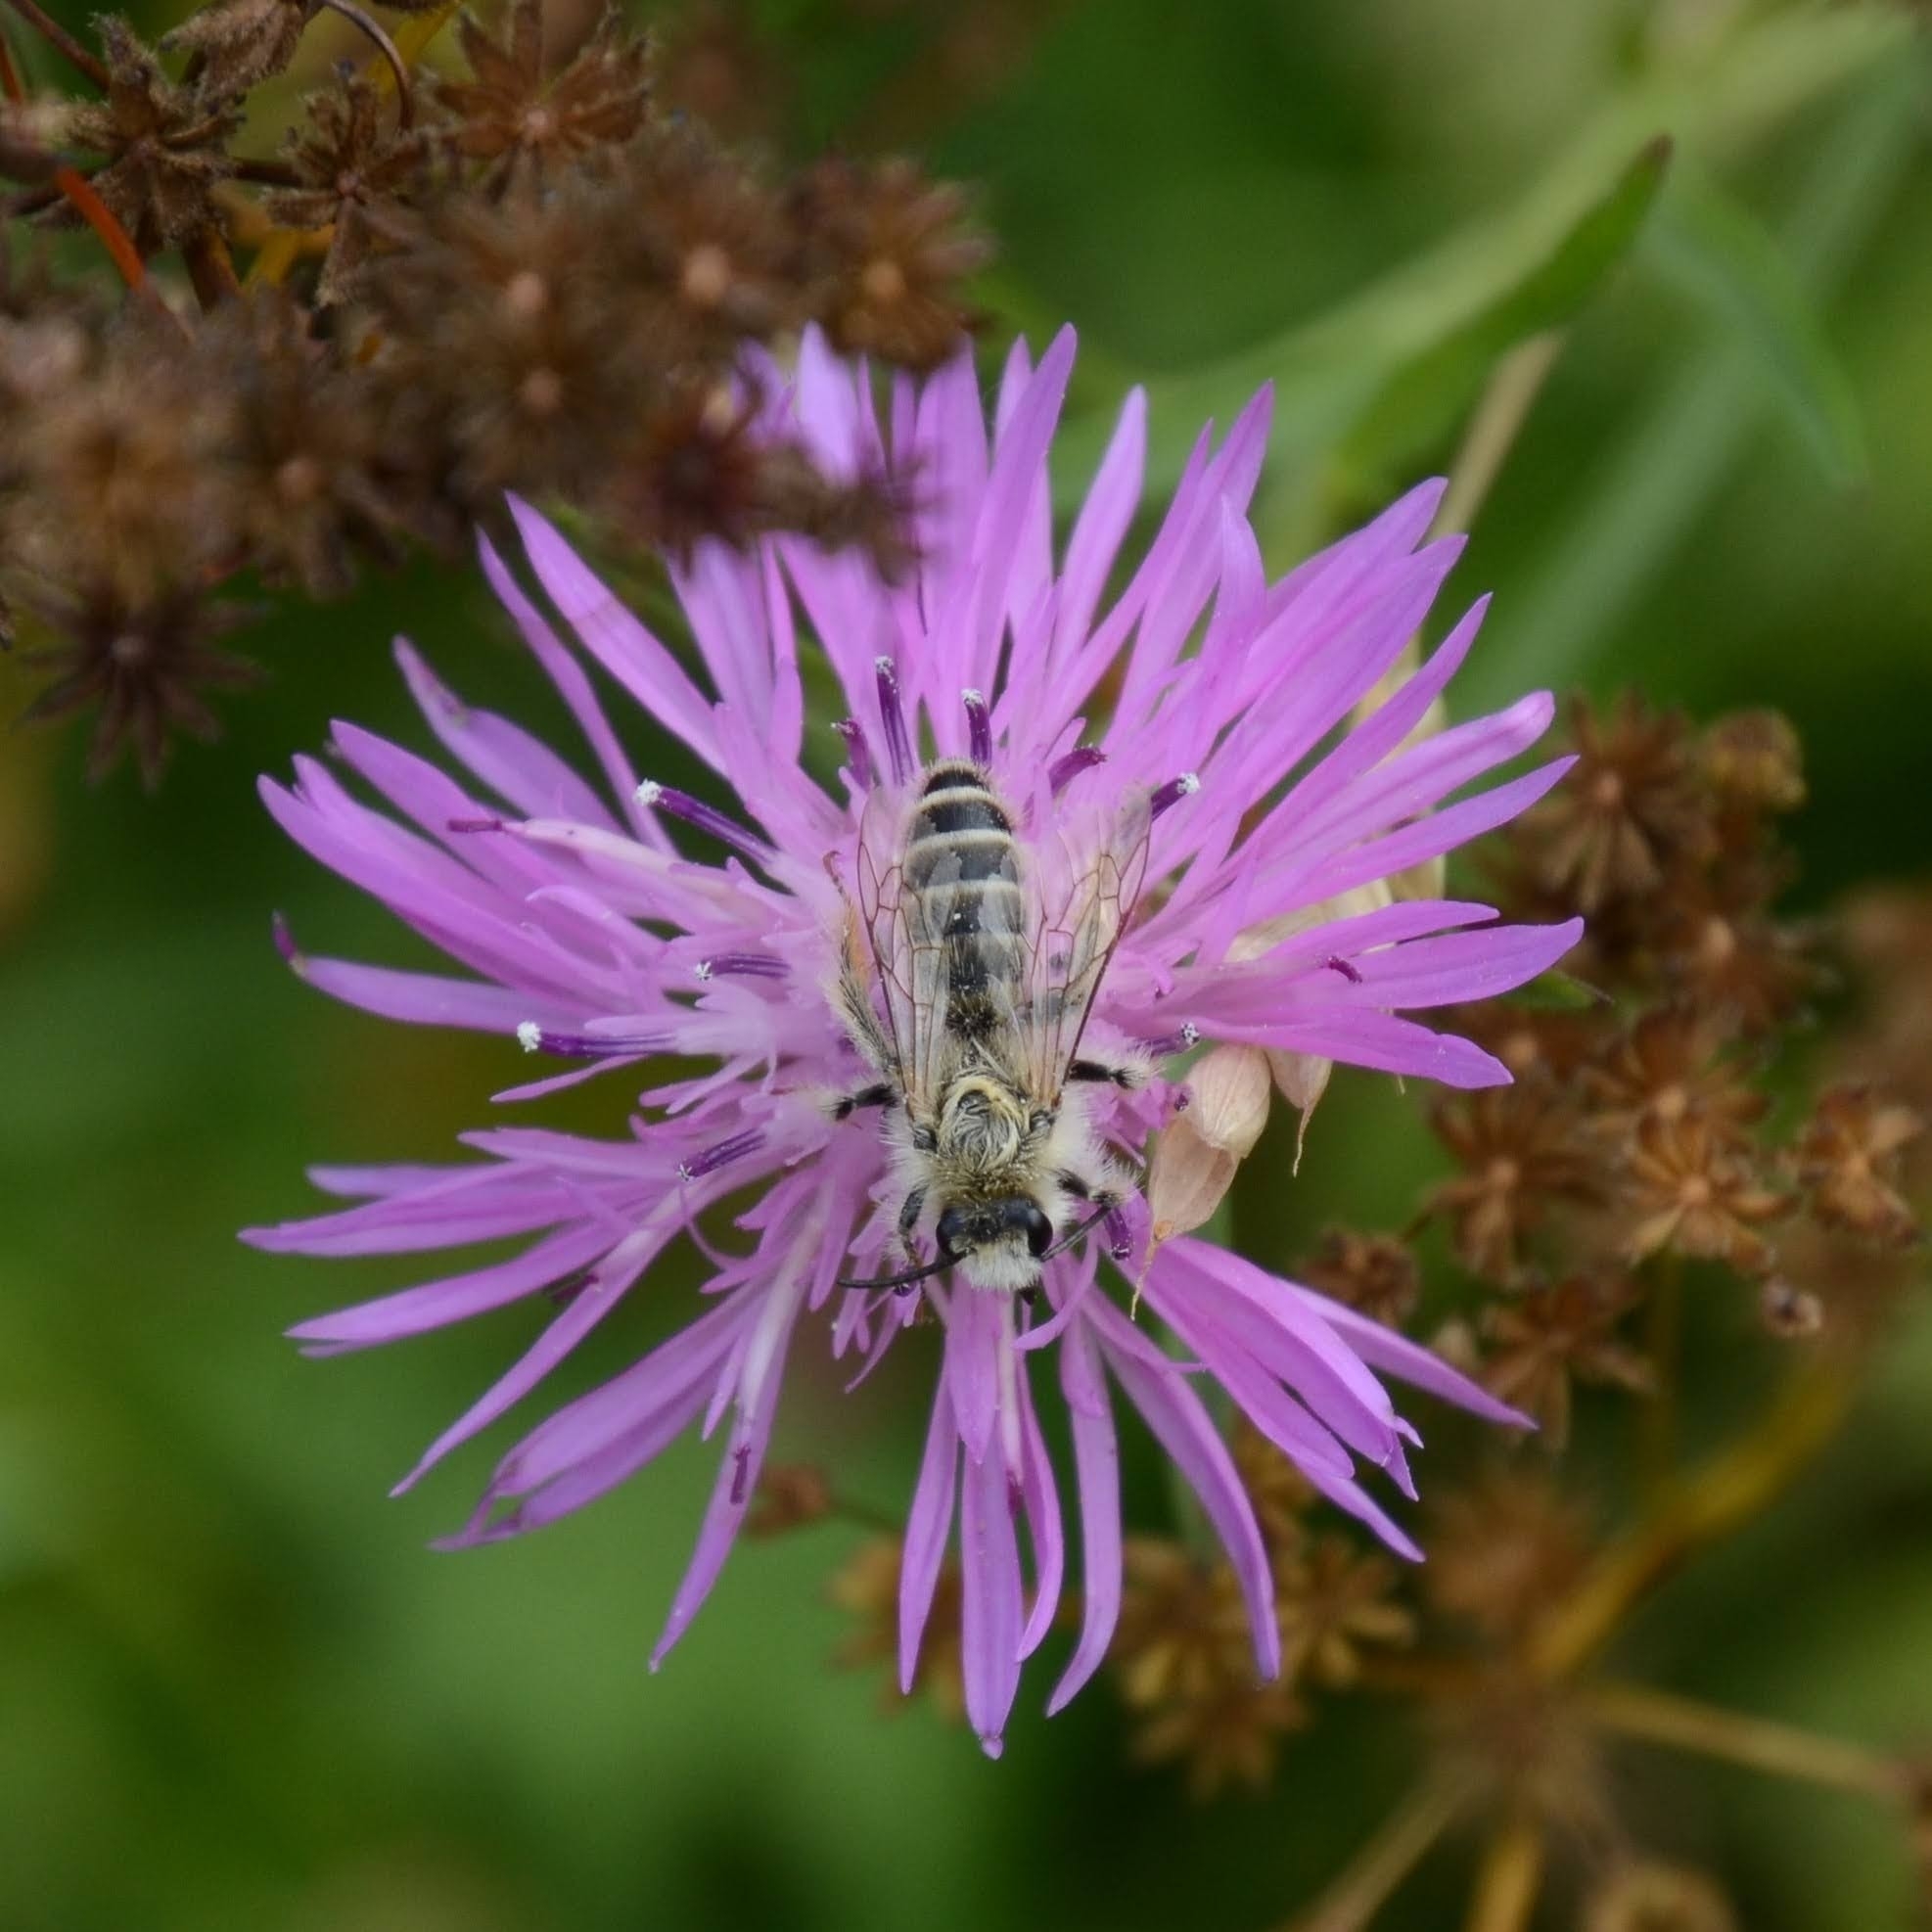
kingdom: Animalia
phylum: Arthropoda
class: Insecta
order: Hymenoptera
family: Melittidae
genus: Dasypoda
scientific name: Dasypoda hirtipes
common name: Pantaloon bee
